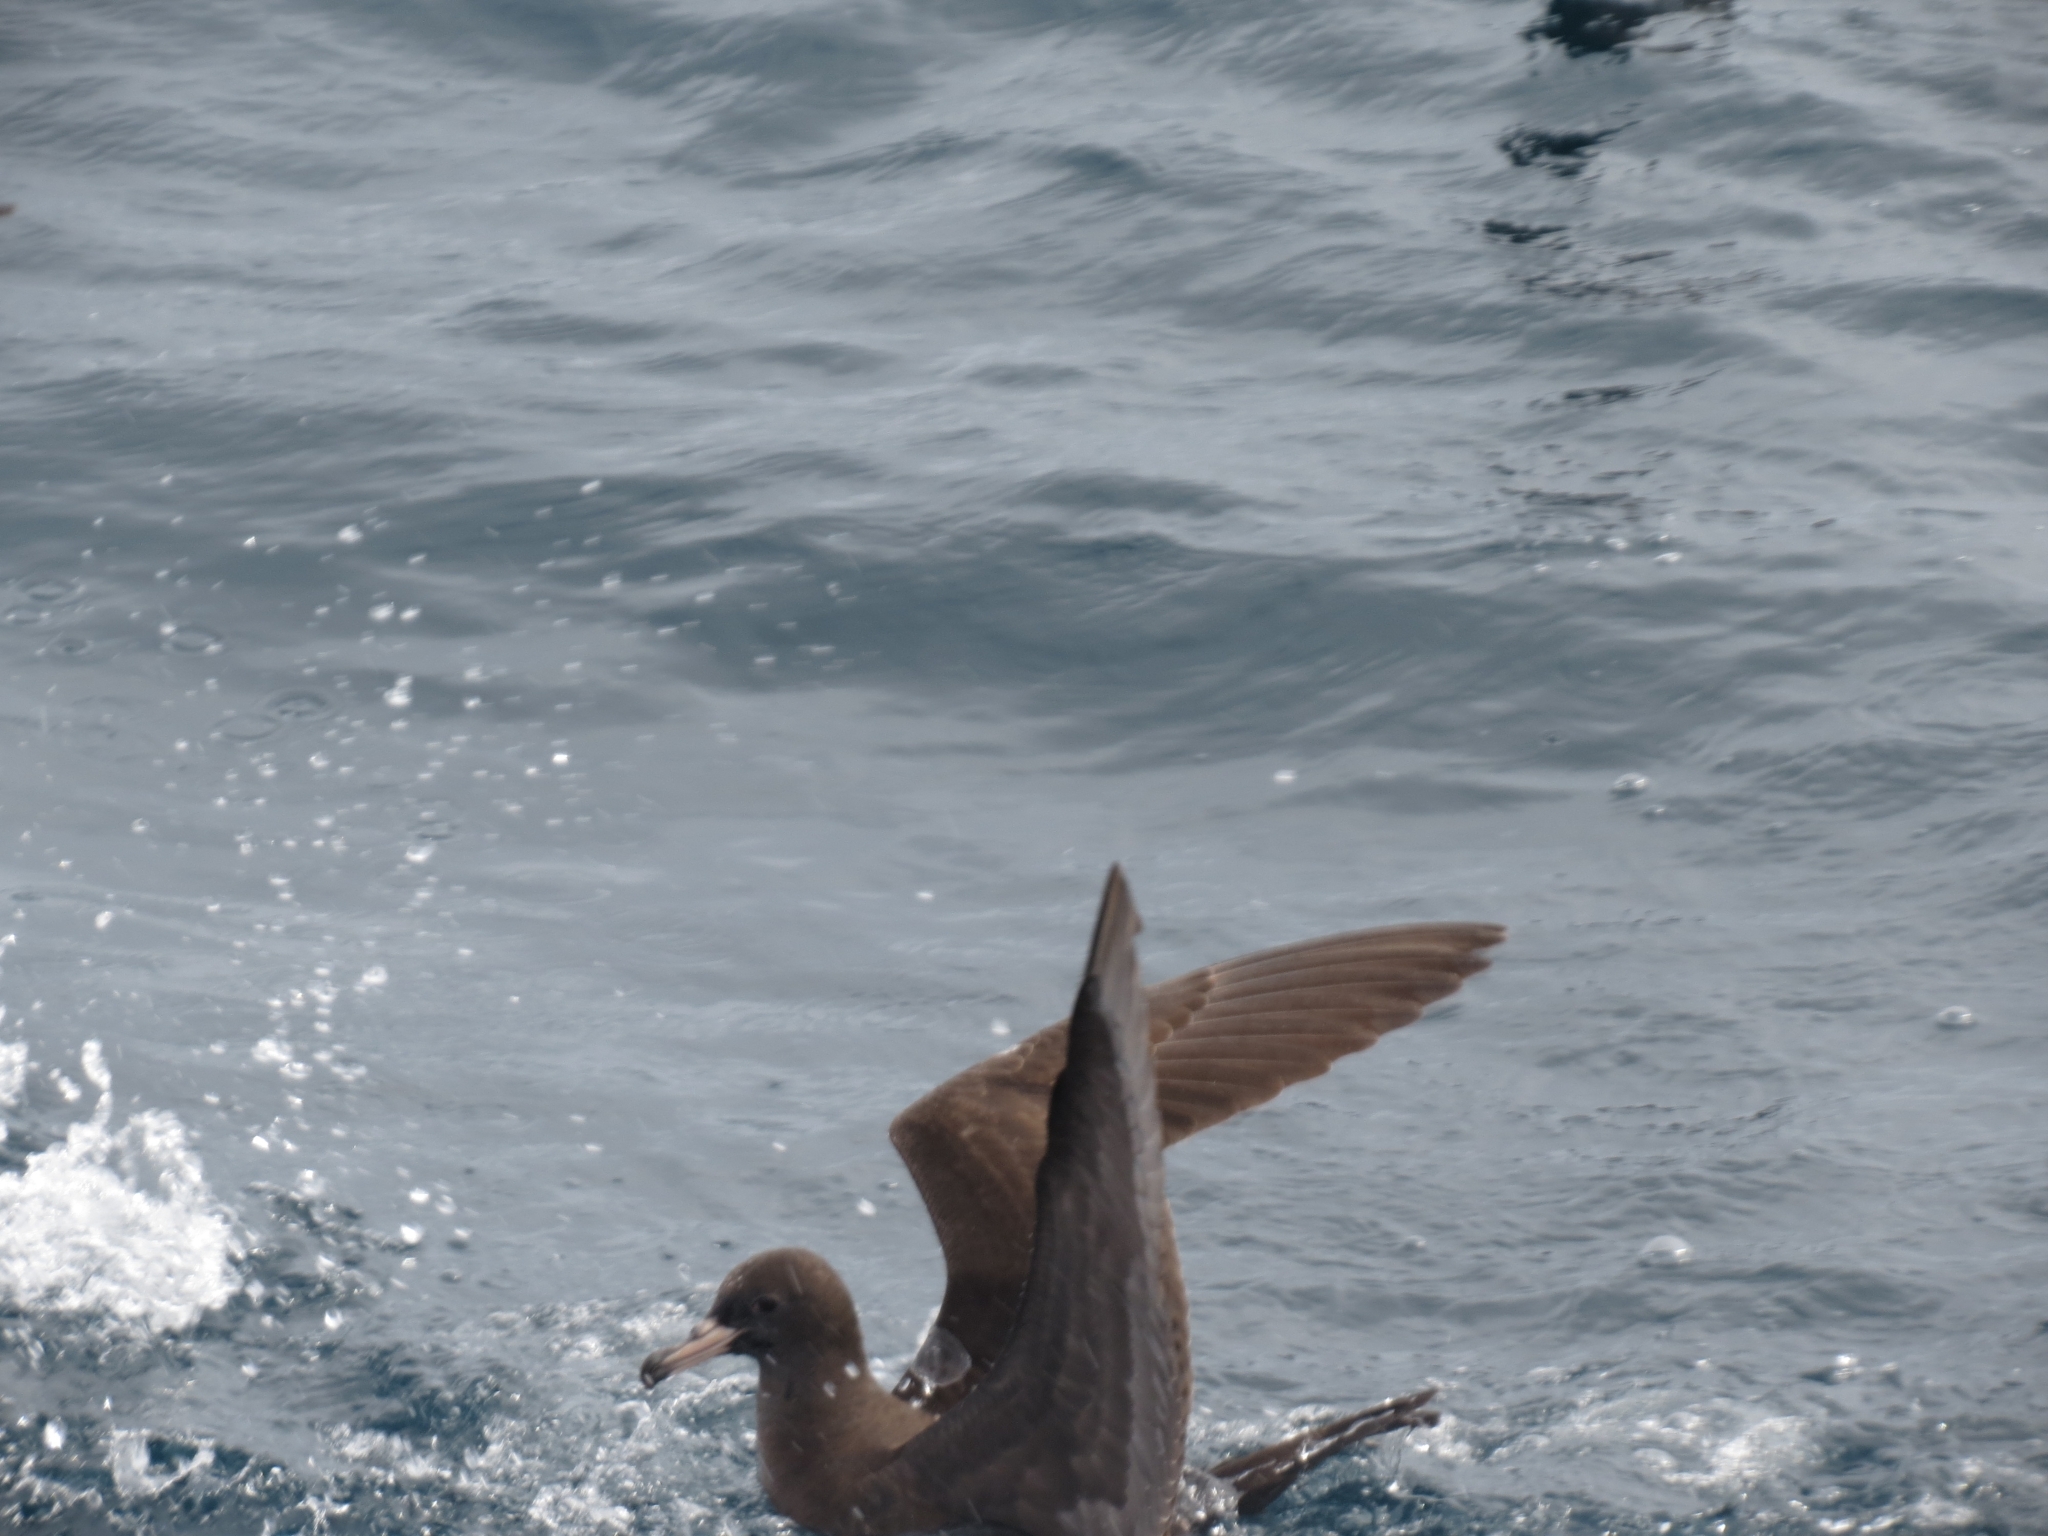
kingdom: Animalia
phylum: Chordata
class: Aves
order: Procellariiformes
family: Procellariidae
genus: Puffinus
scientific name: Puffinus carneipes
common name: Flesh-footed shearwater
